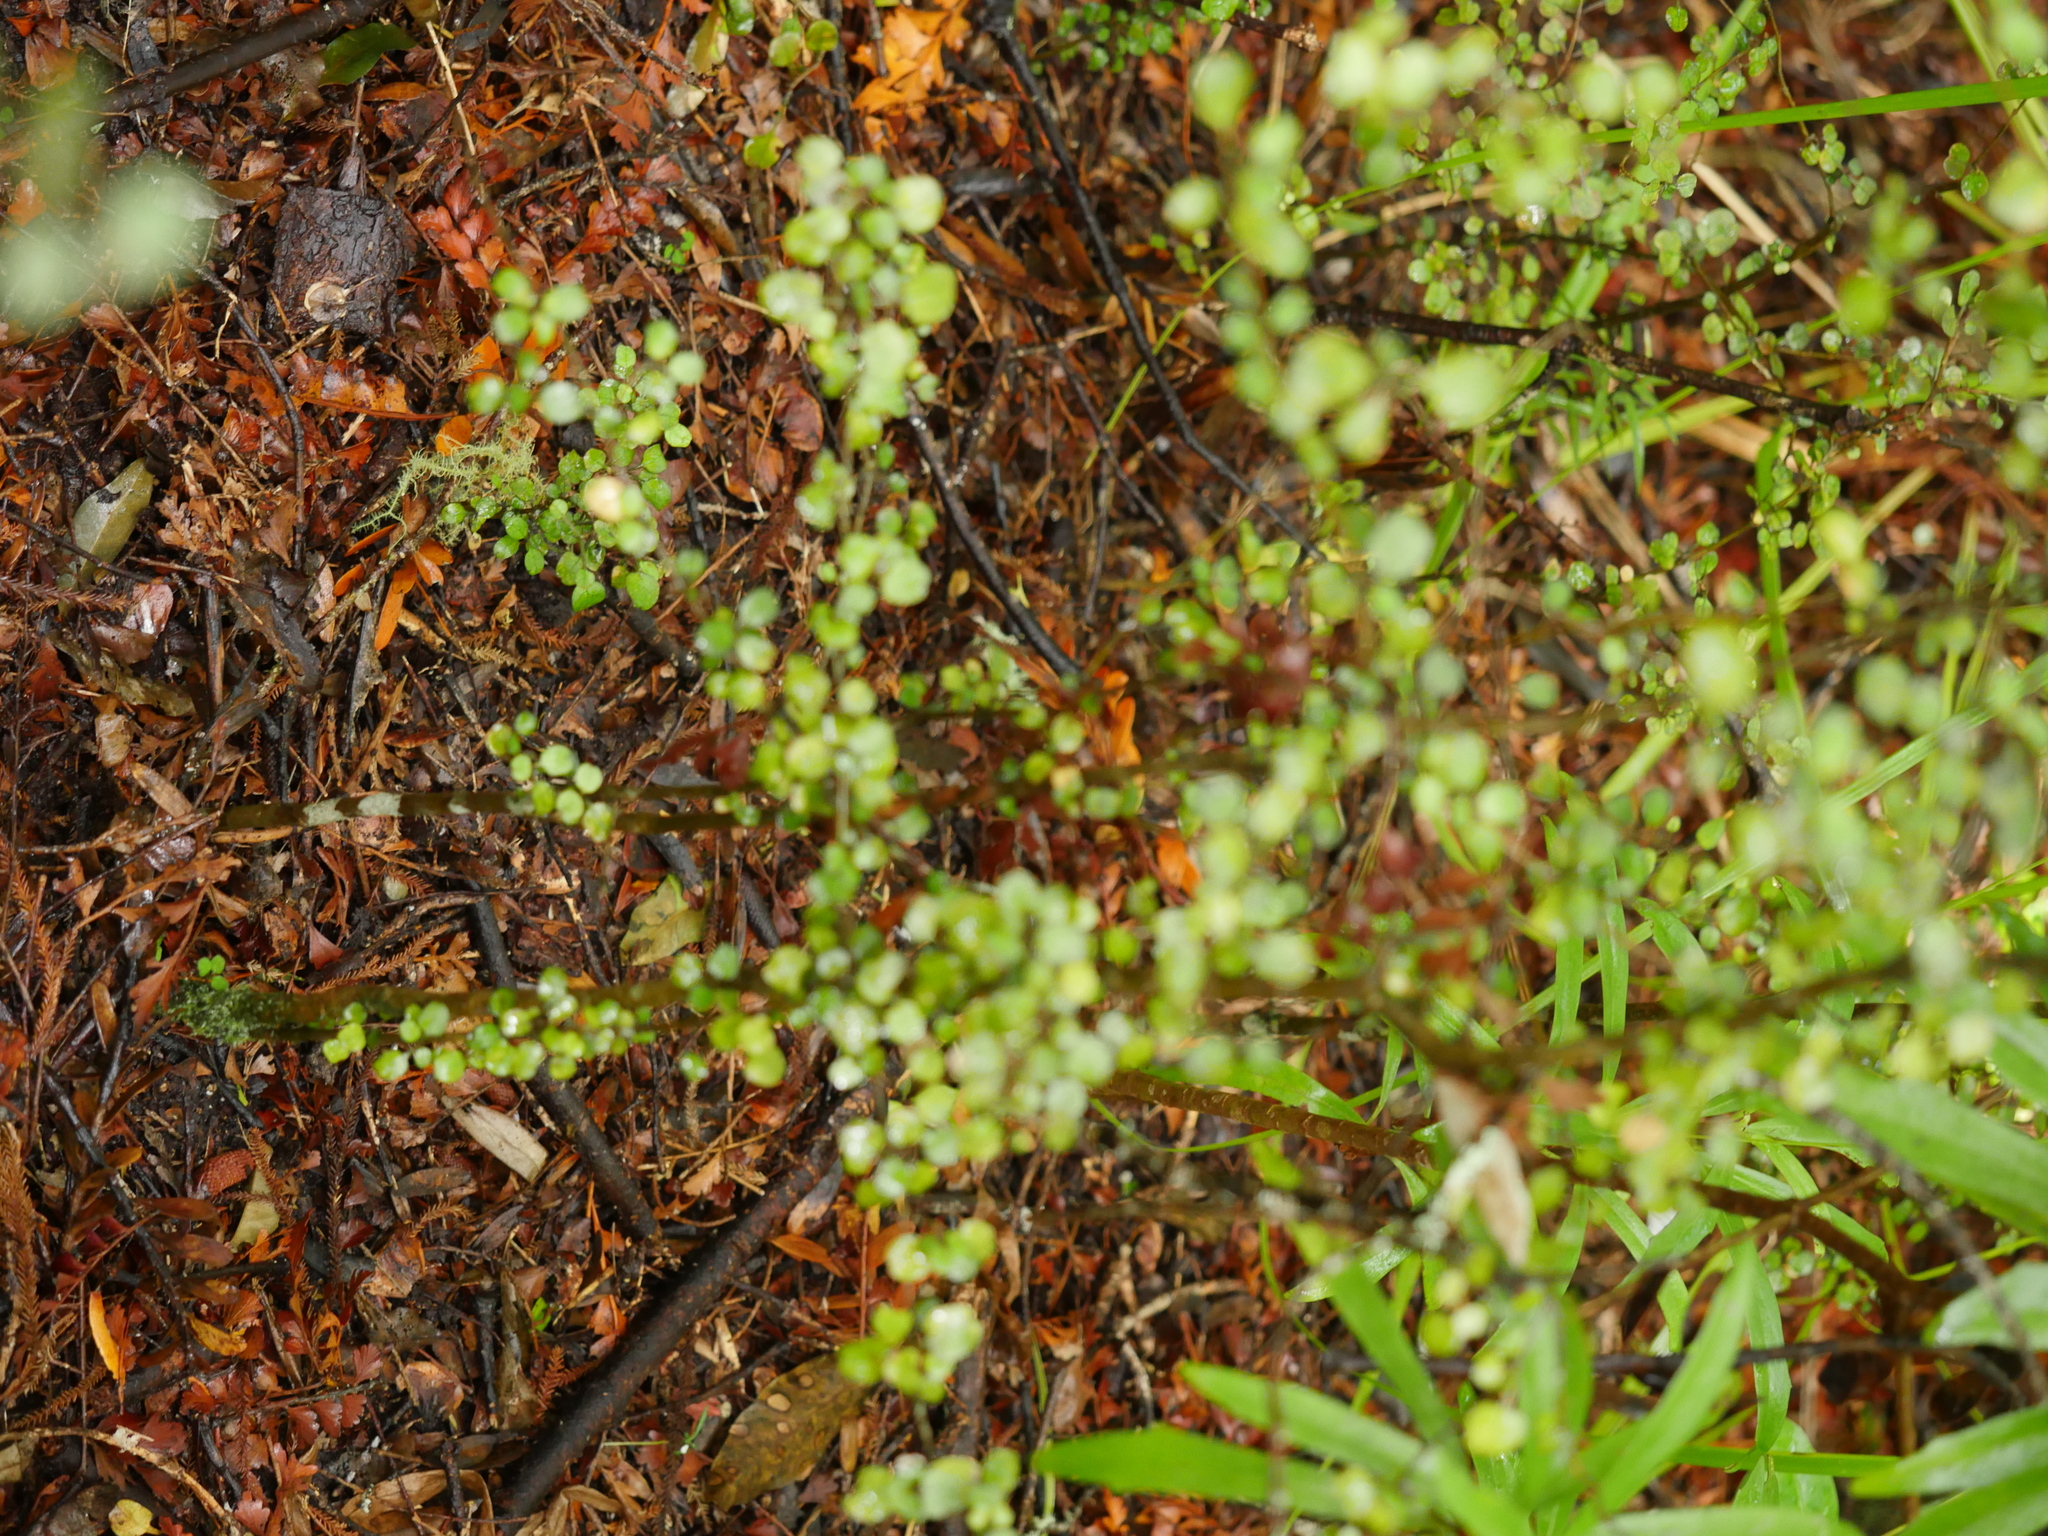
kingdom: Plantae
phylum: Tracheophyta
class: Magnoliopsida
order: Gentianales
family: Rubiaceae
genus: Coprosma
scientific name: Coprosma spathulata
